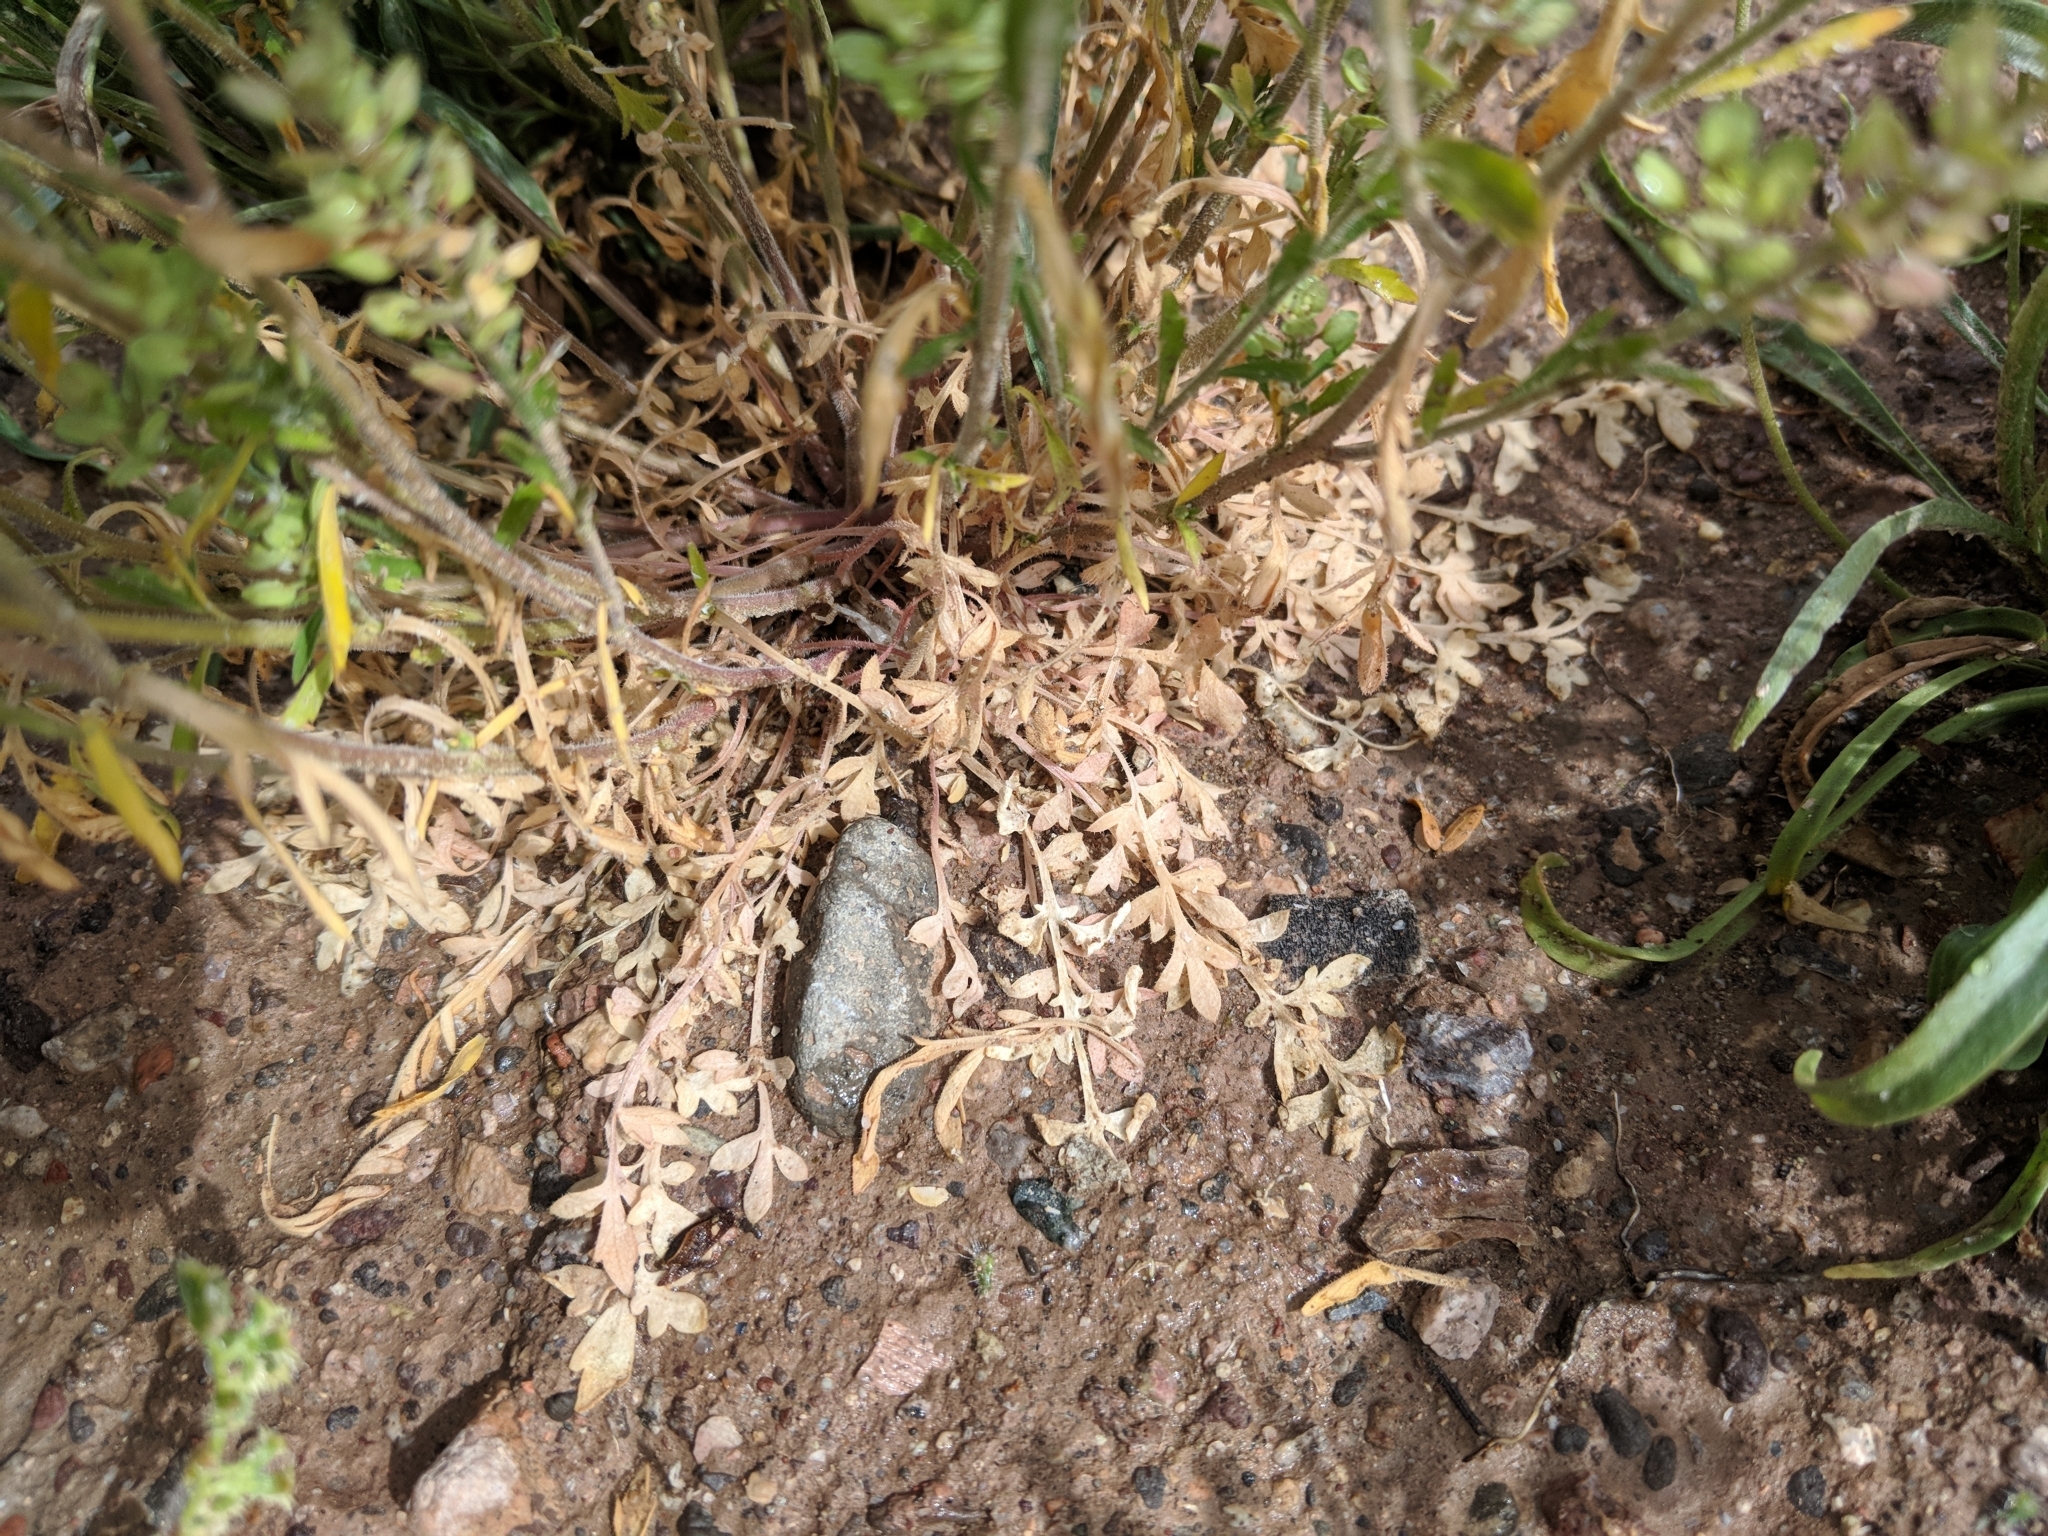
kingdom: Plantae
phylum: Tracheophyta
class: Magnoliopsida
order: Brassicales
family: Brassicaceae
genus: Lepidium
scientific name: Lepidium lasiocarpum
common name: Hairy-pod pepperwort
